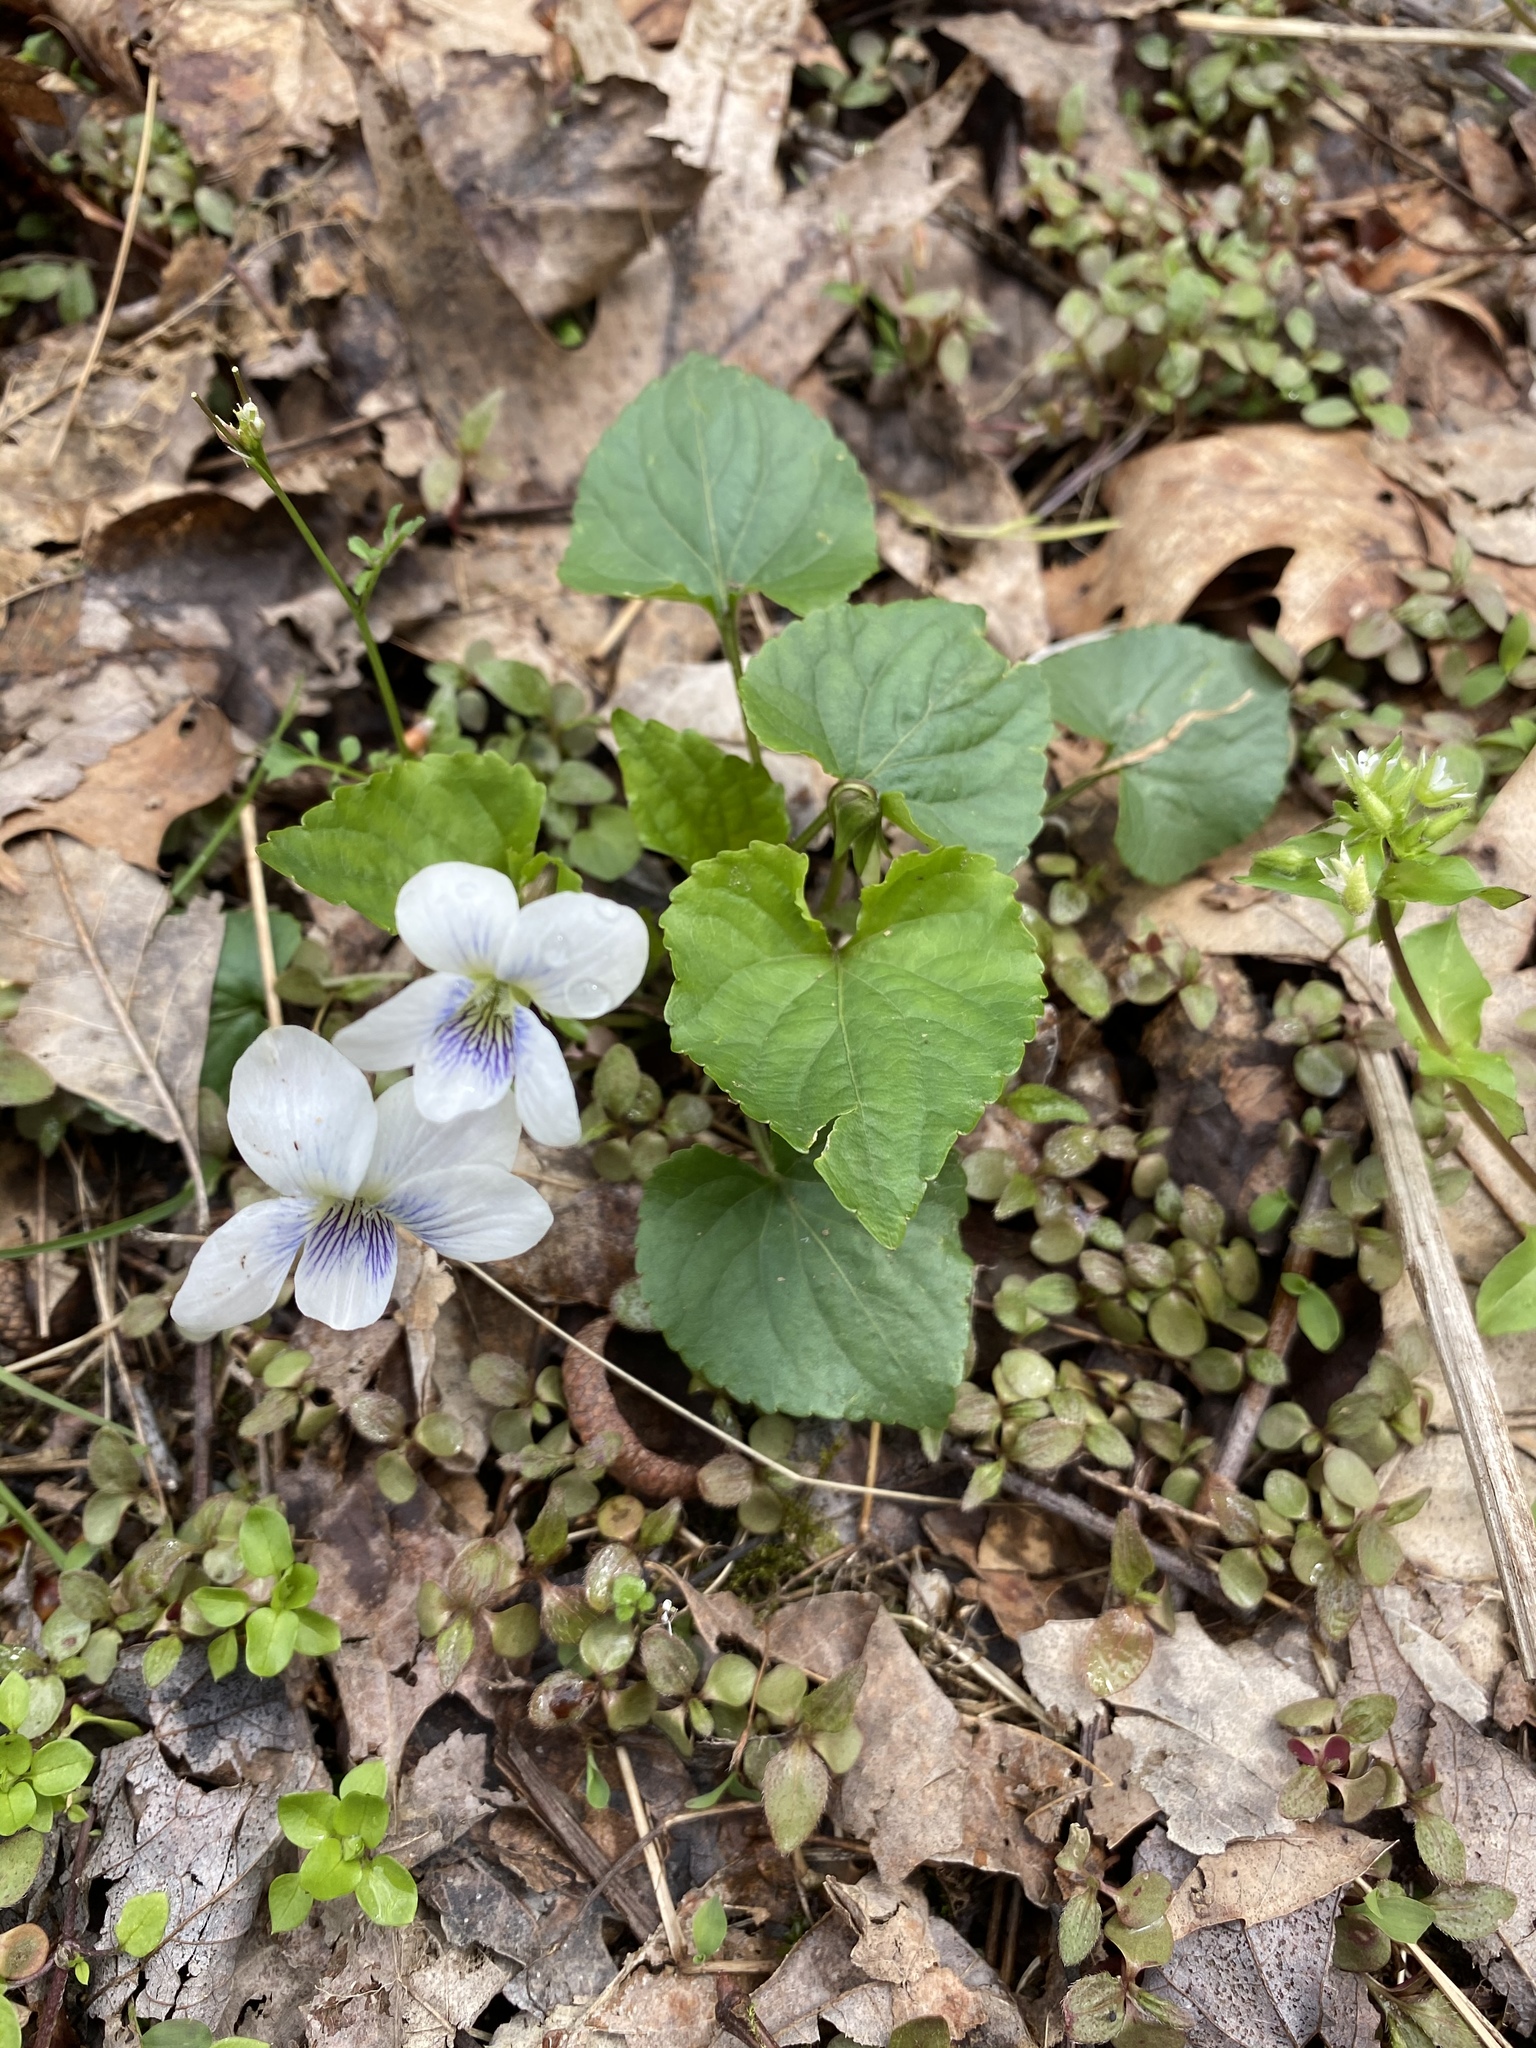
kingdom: Plantae
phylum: Tracheophyta
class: Magnoliopsida
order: Malpighiales
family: Violaceae
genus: Viola
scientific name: Viola sororia
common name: Dooryard violet
